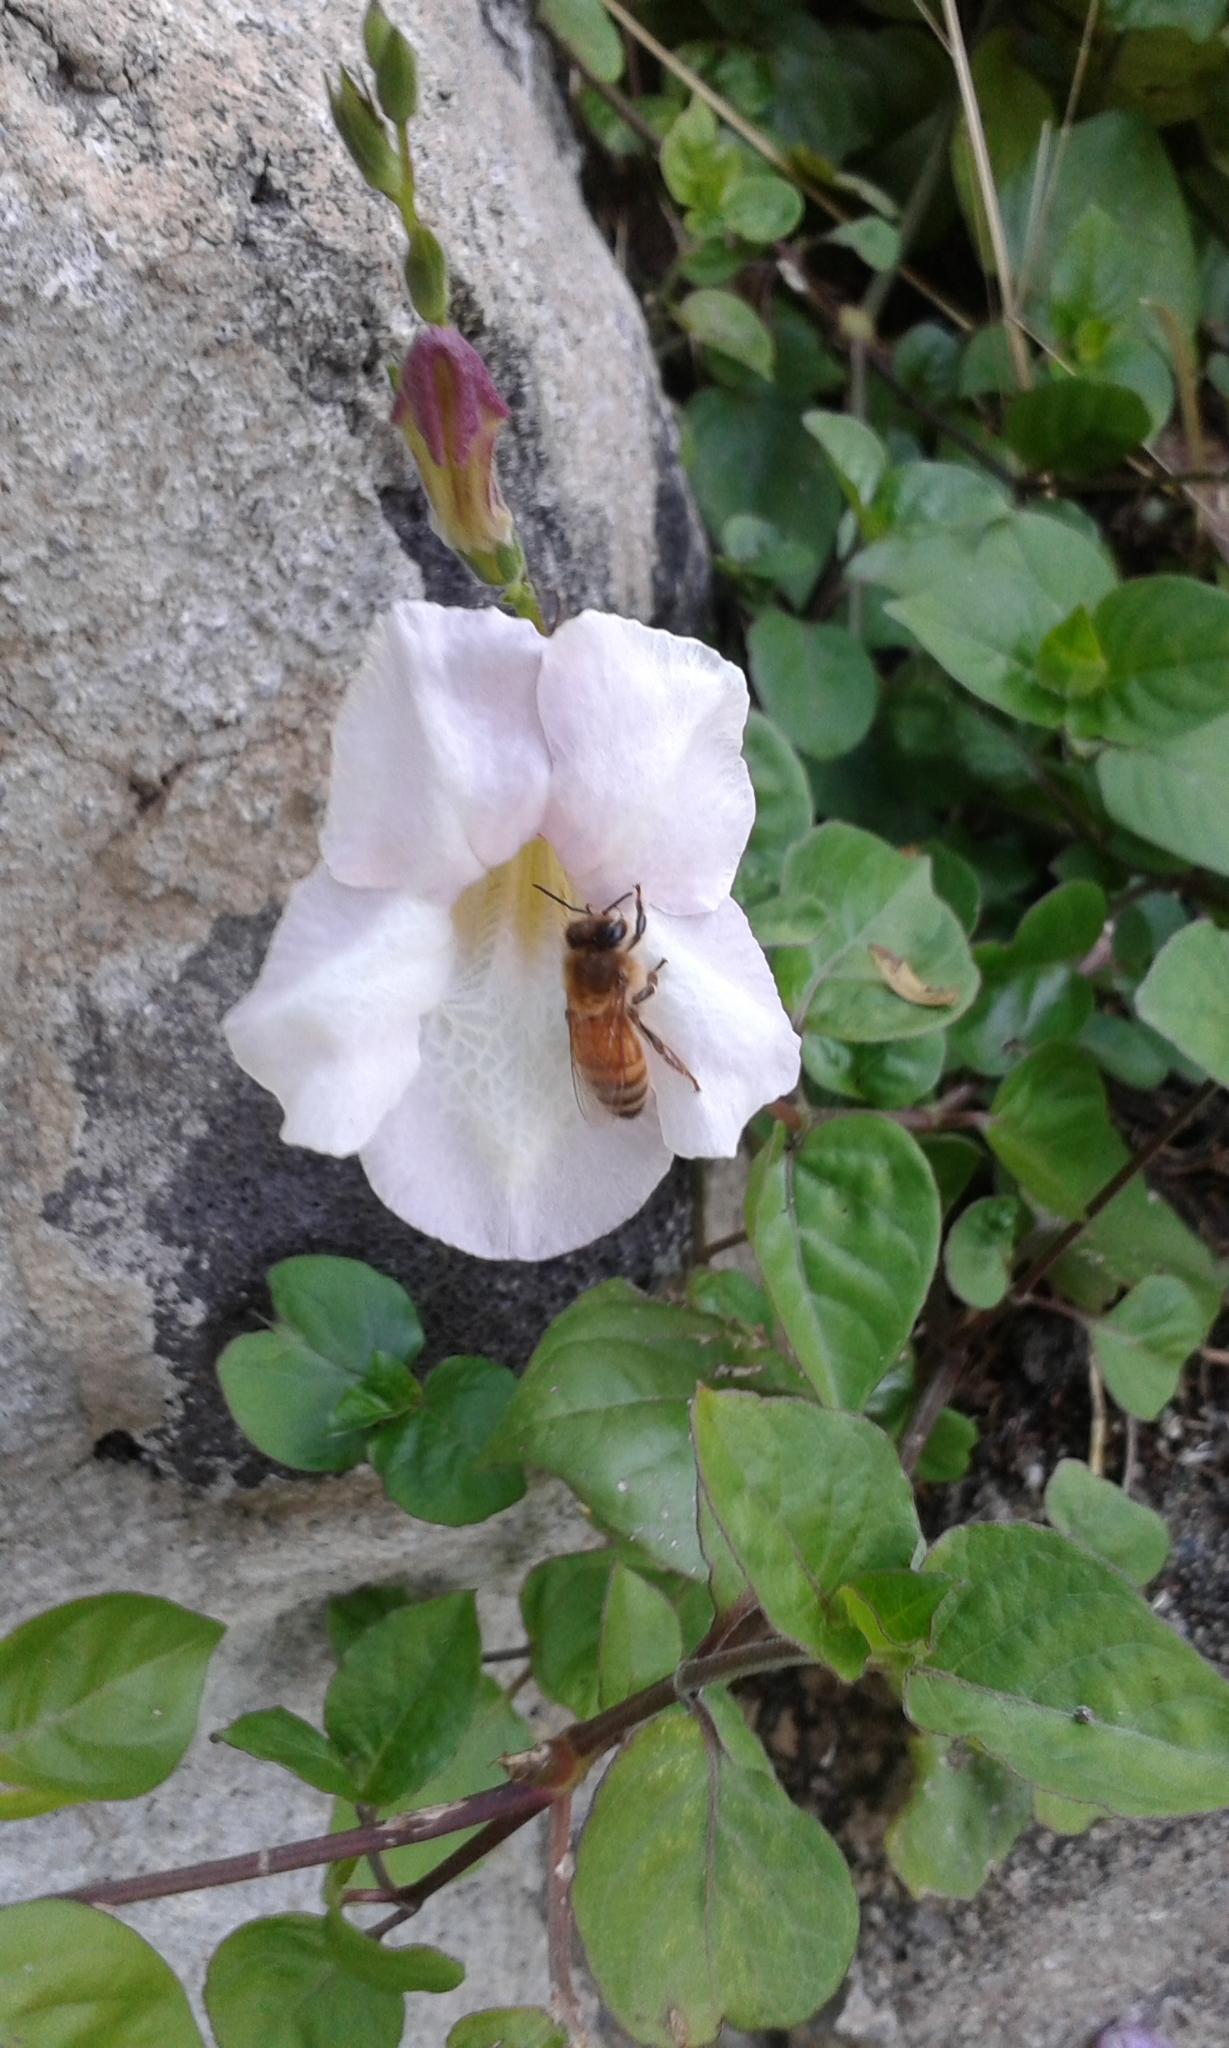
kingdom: Animalia
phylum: Arthropoda
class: Insecta
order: Hymenoptera
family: Apidae
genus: Apis
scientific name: Apis mellifera
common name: Honey bee
